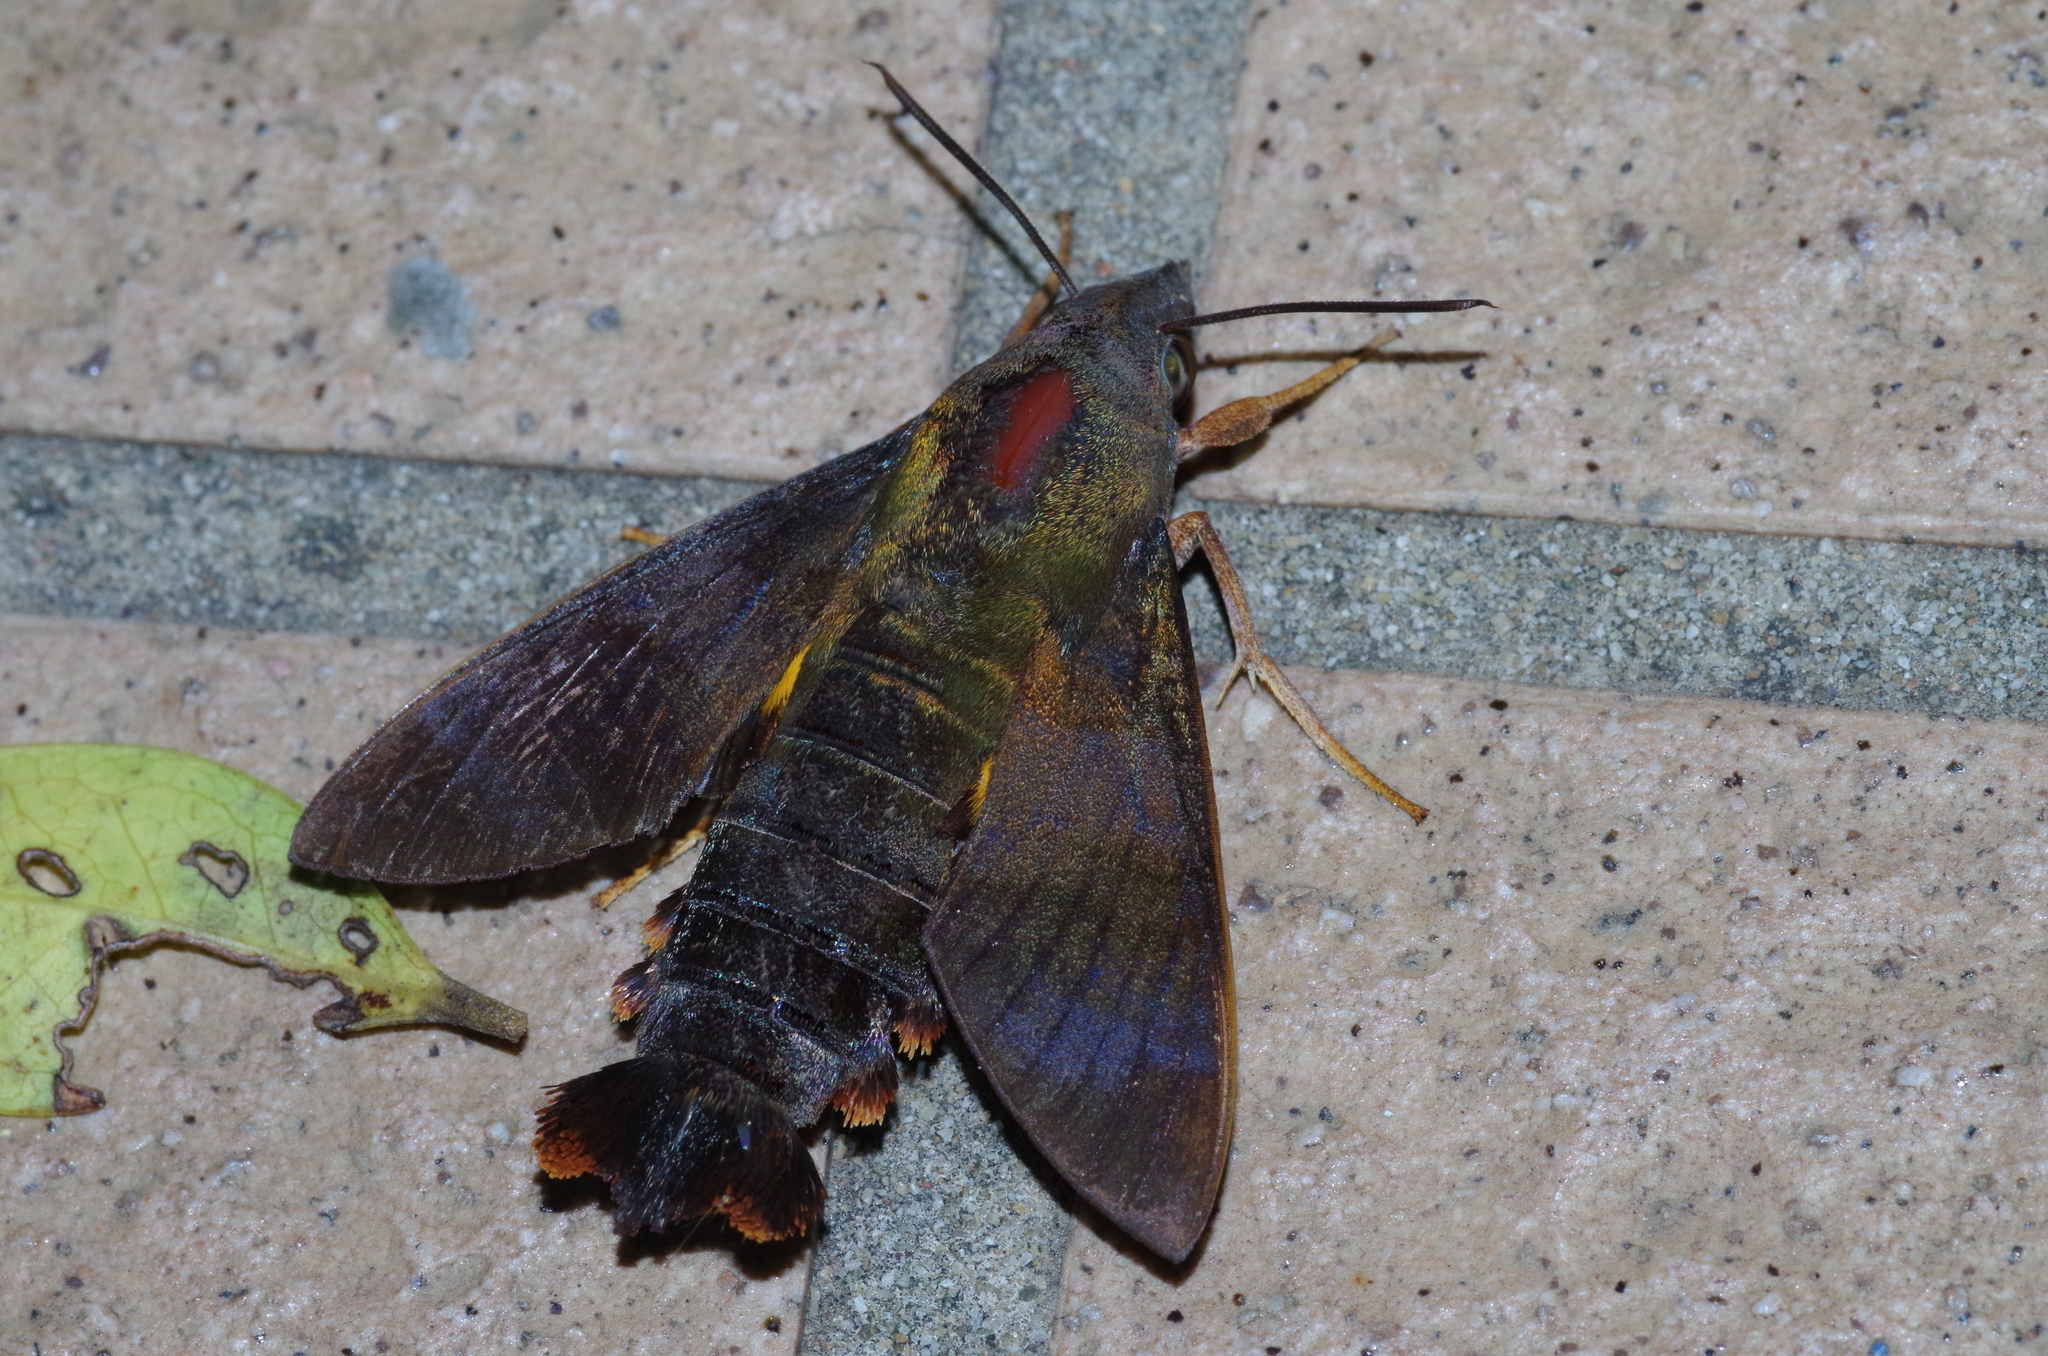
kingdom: Animalia
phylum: Arthropoda
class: Insecta
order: Lepidoptera
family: Sphingidae
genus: Macroglossum
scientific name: Macroglossum corythus
